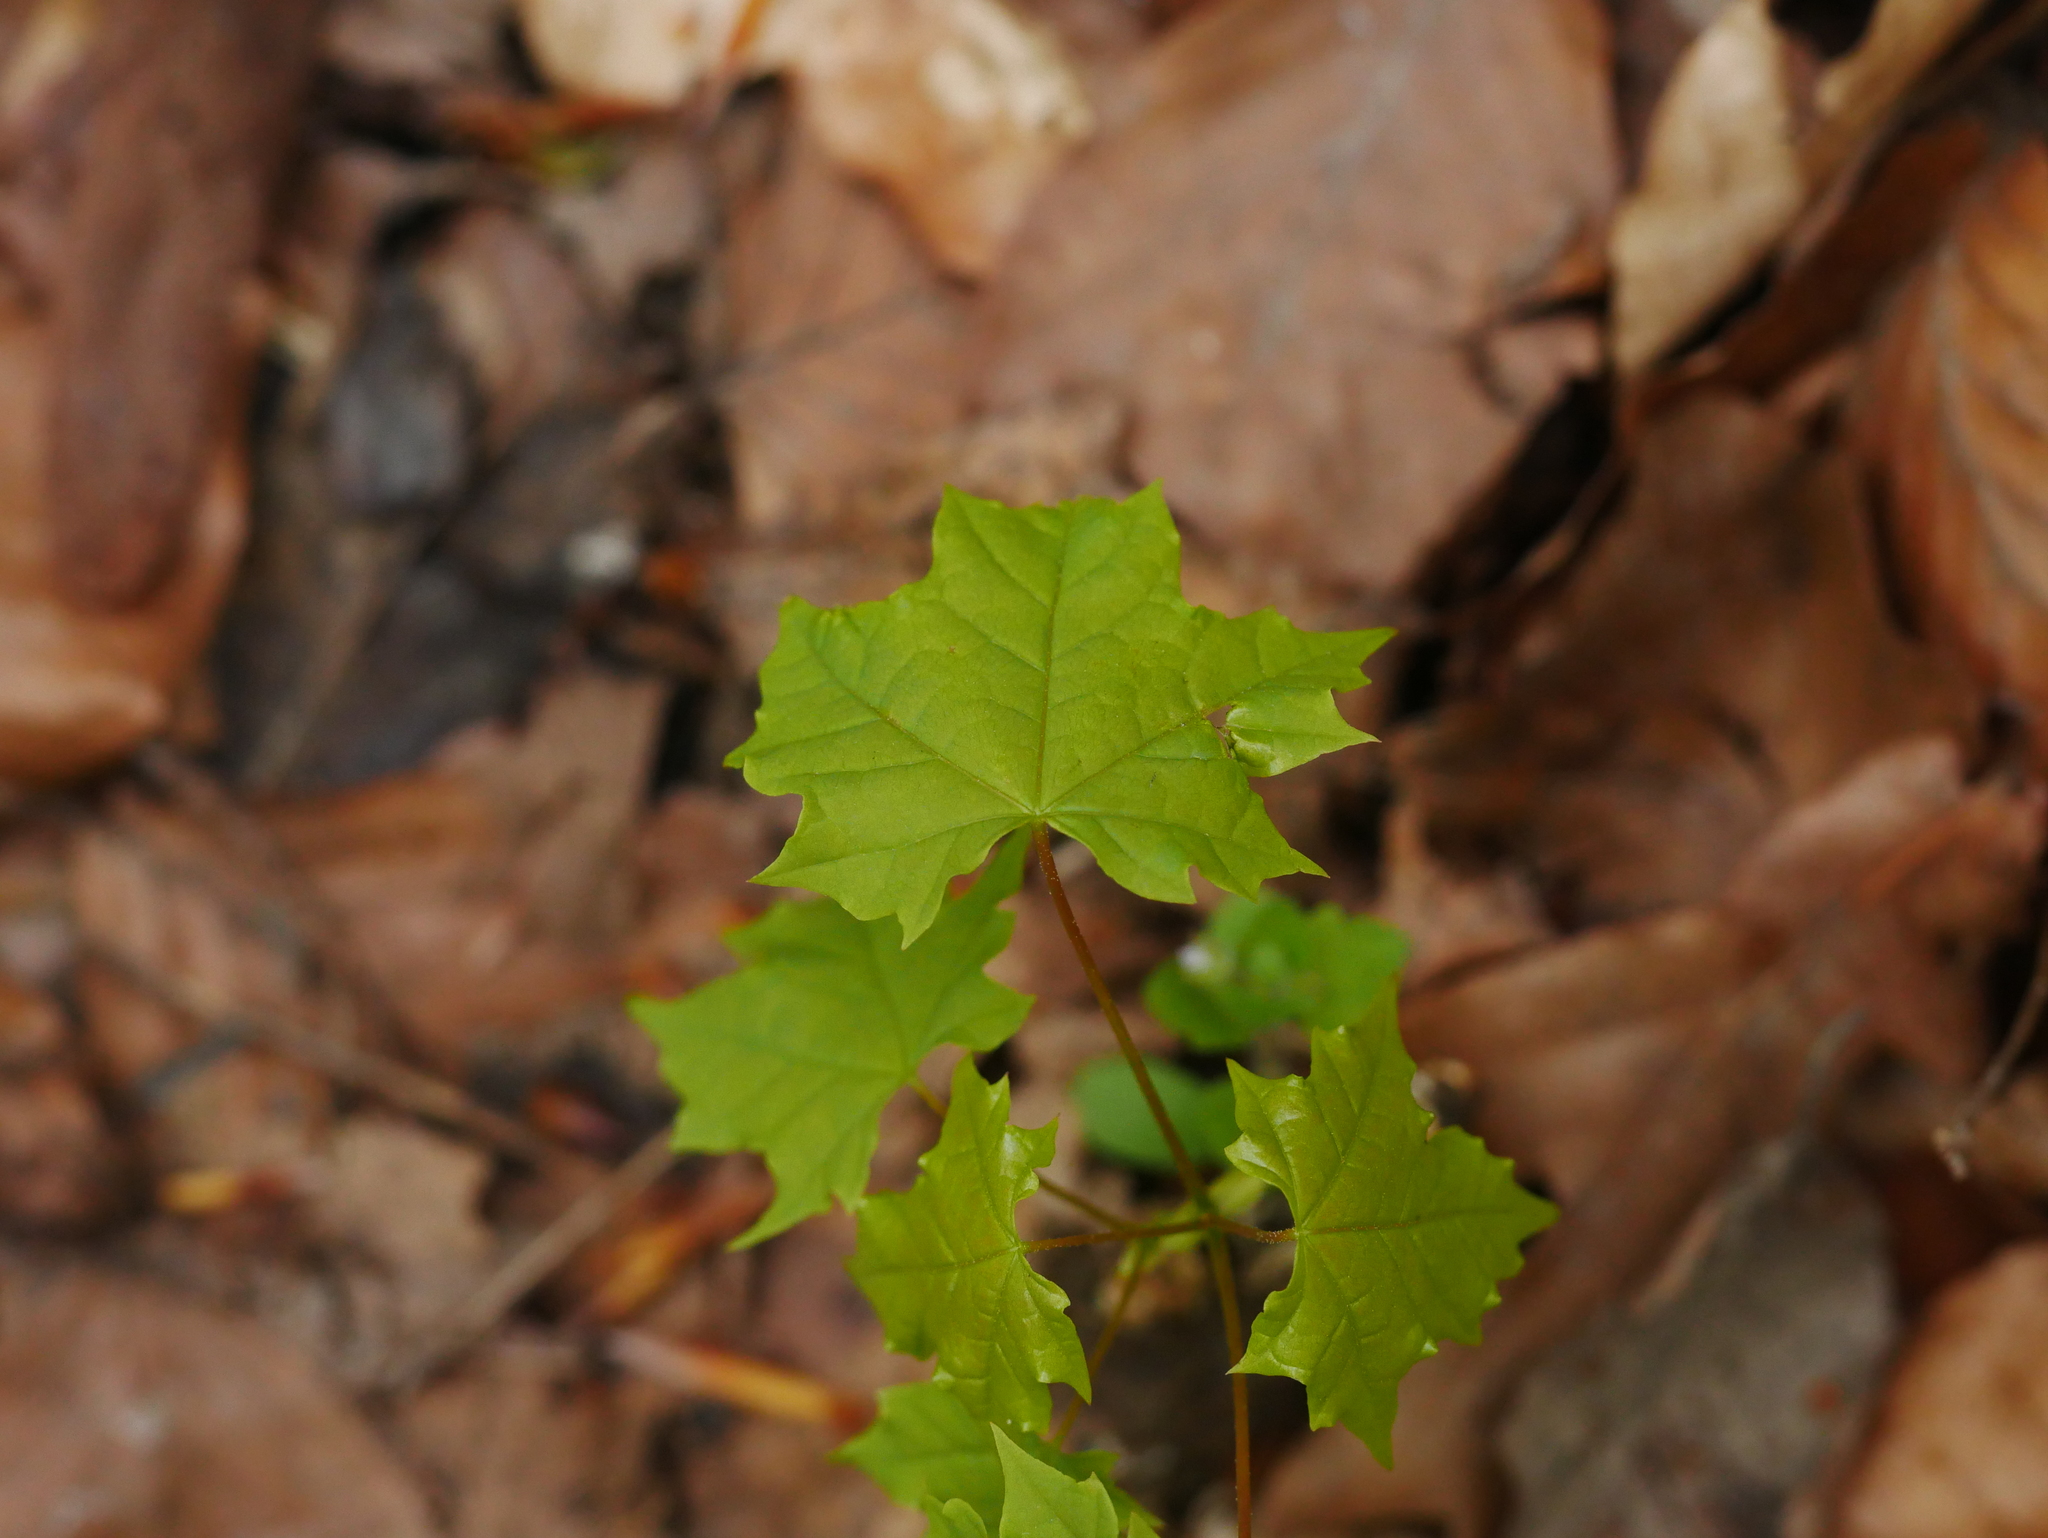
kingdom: Plantae
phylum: Tracheophyta
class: Magnoliopsida
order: Sapindales
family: Sapindaceae
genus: Acer
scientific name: Acer platanoides
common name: Norway maple
